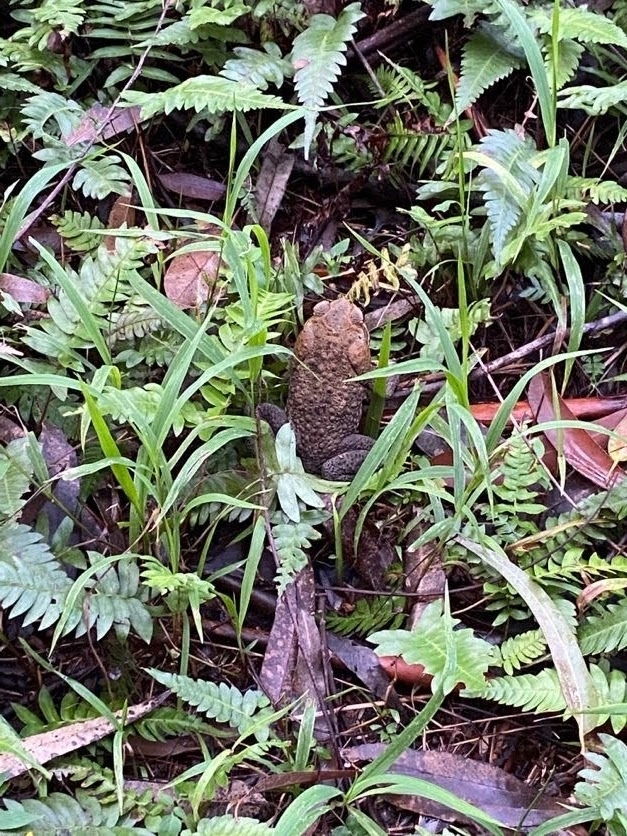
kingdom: Animalia
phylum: Chordata
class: Amphibia
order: Anura
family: Bufonidae
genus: Rhinella
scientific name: Rhinella marina
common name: Cane toad
